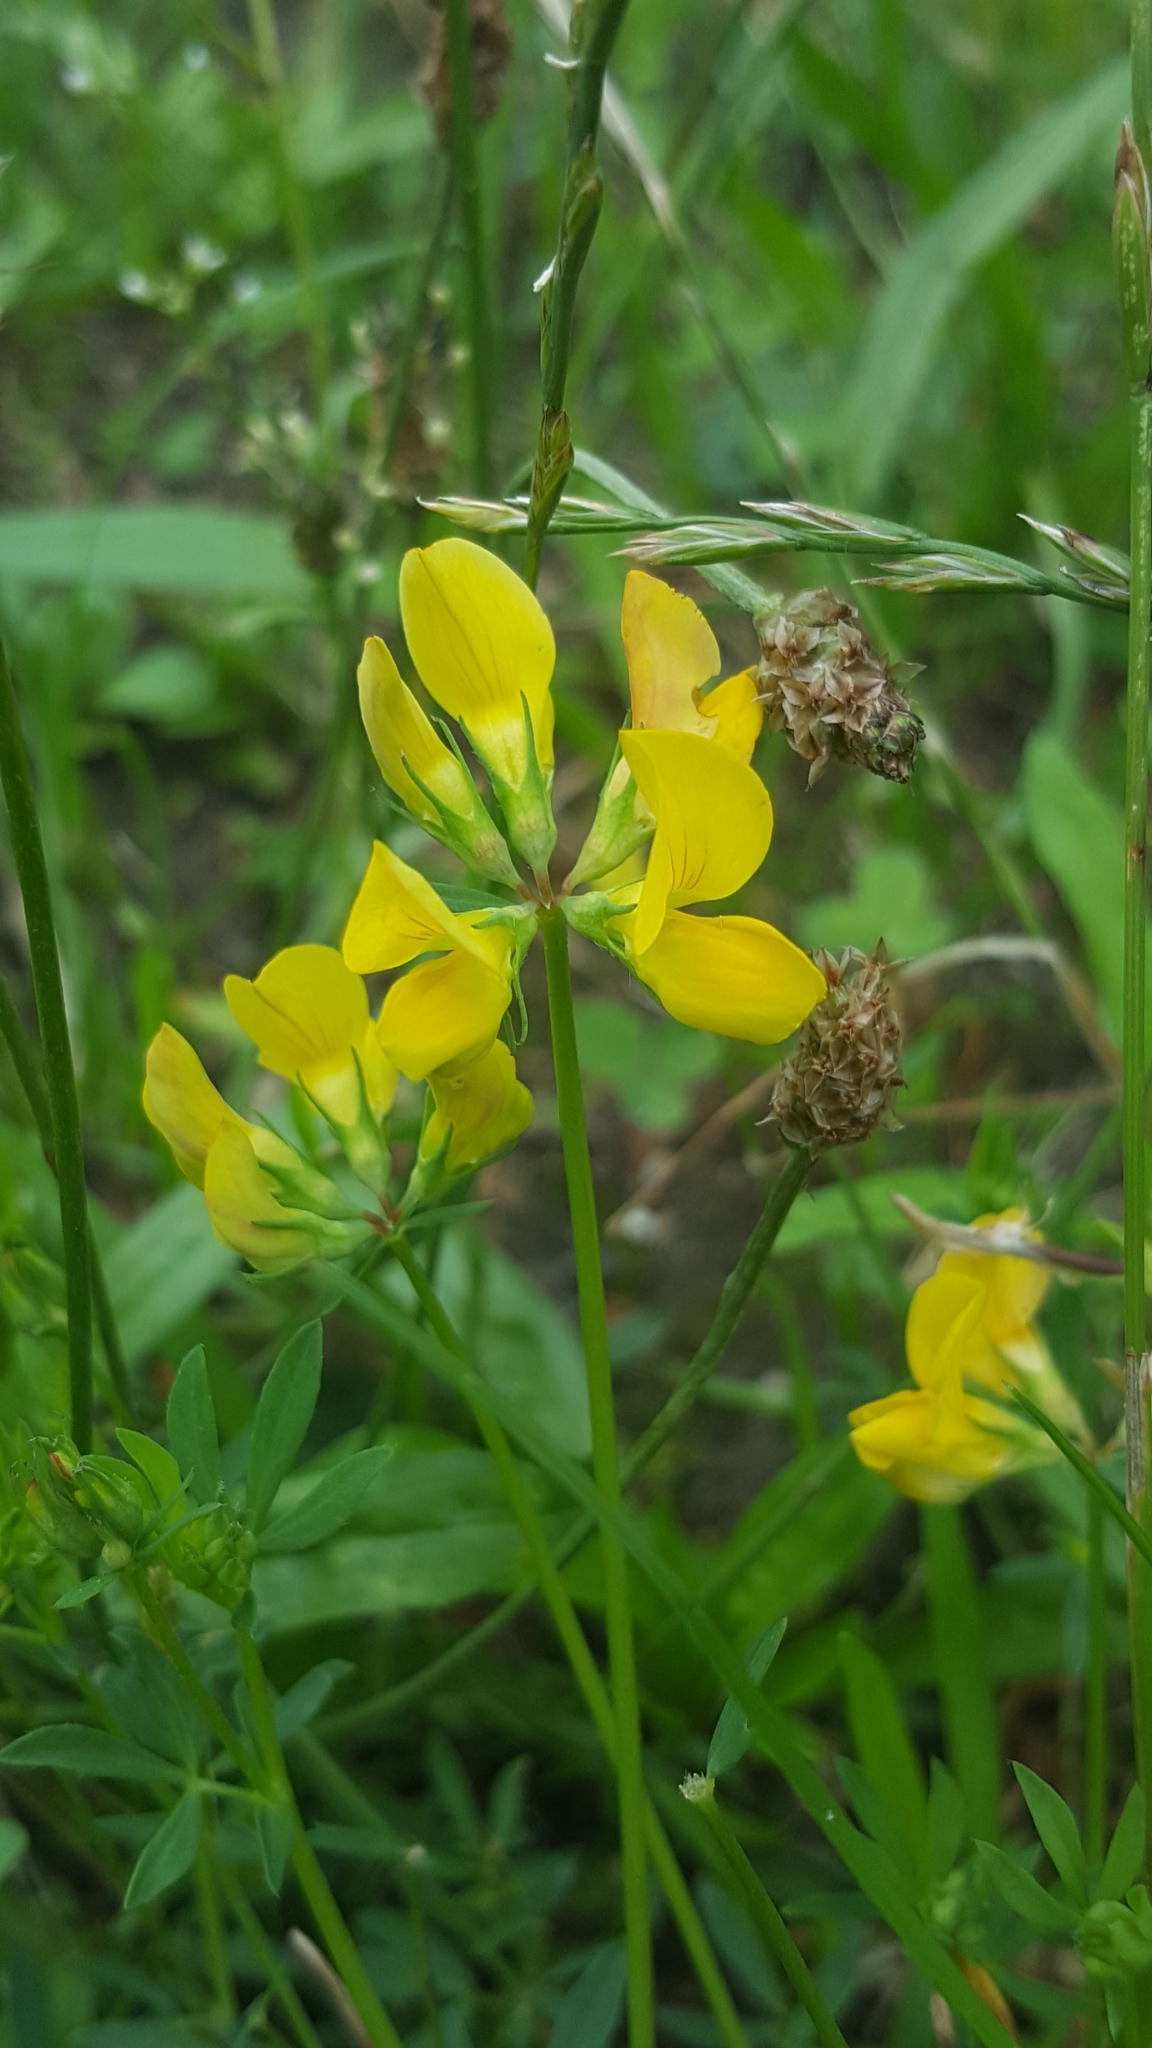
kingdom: Plantae
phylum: Tracheophyta
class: Magnoliopsida
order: Fabales
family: Fabaceae
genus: Lotus
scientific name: Lotus corniculatus
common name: Common bird's-foot-trefoil
